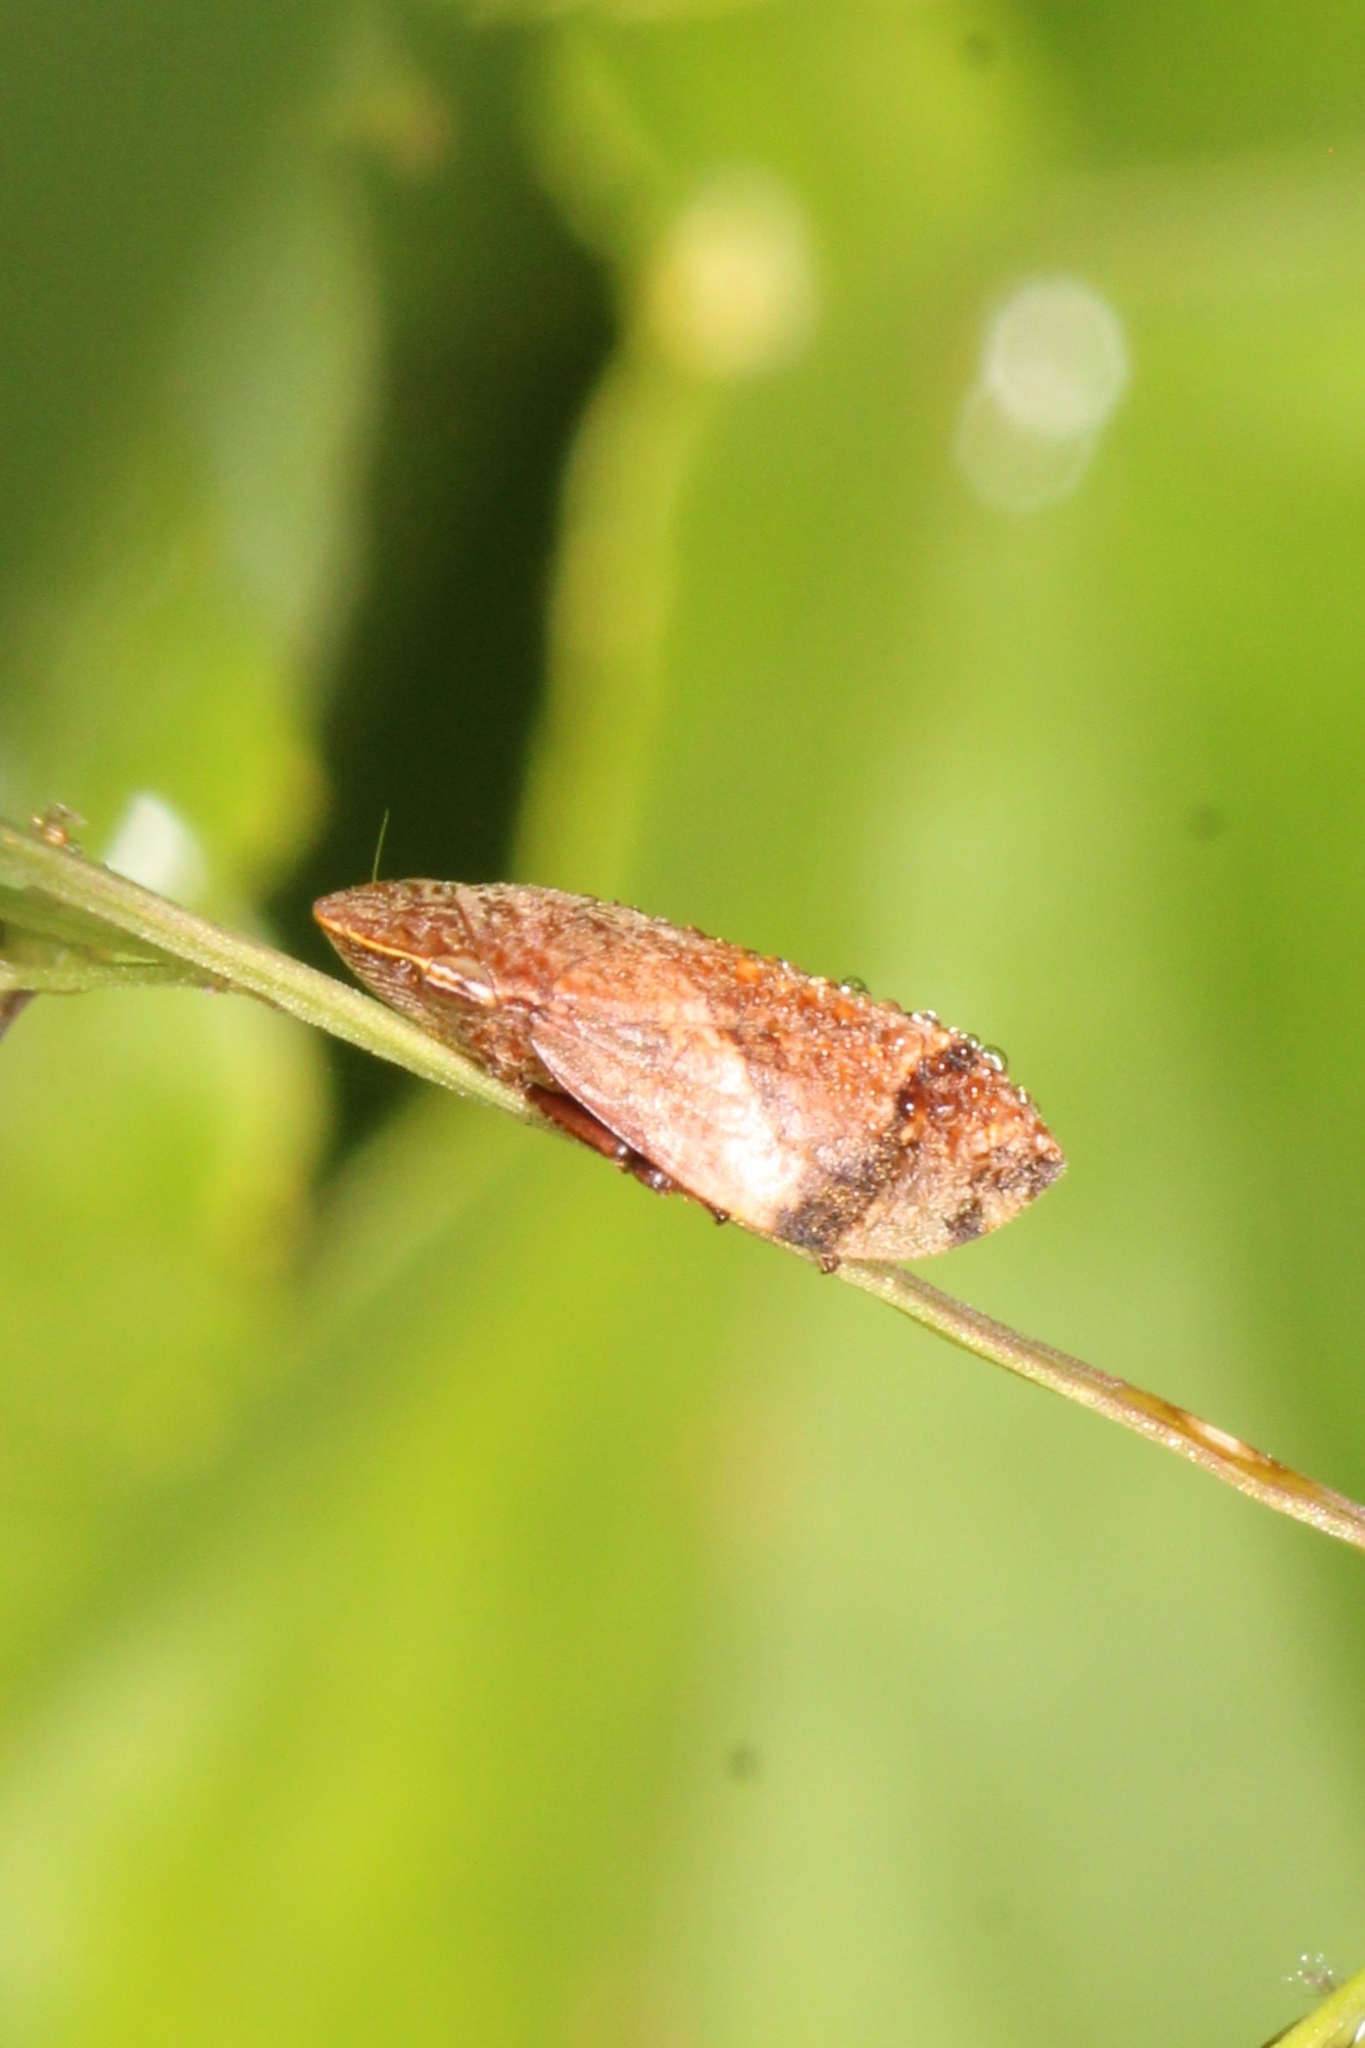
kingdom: Animalia
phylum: Arthropoda
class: Insecta
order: Hemiptera
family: Aphrophoridae
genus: Lepyronia
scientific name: Lepyronia quadrangularis
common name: Diamond-backed spittlebug
